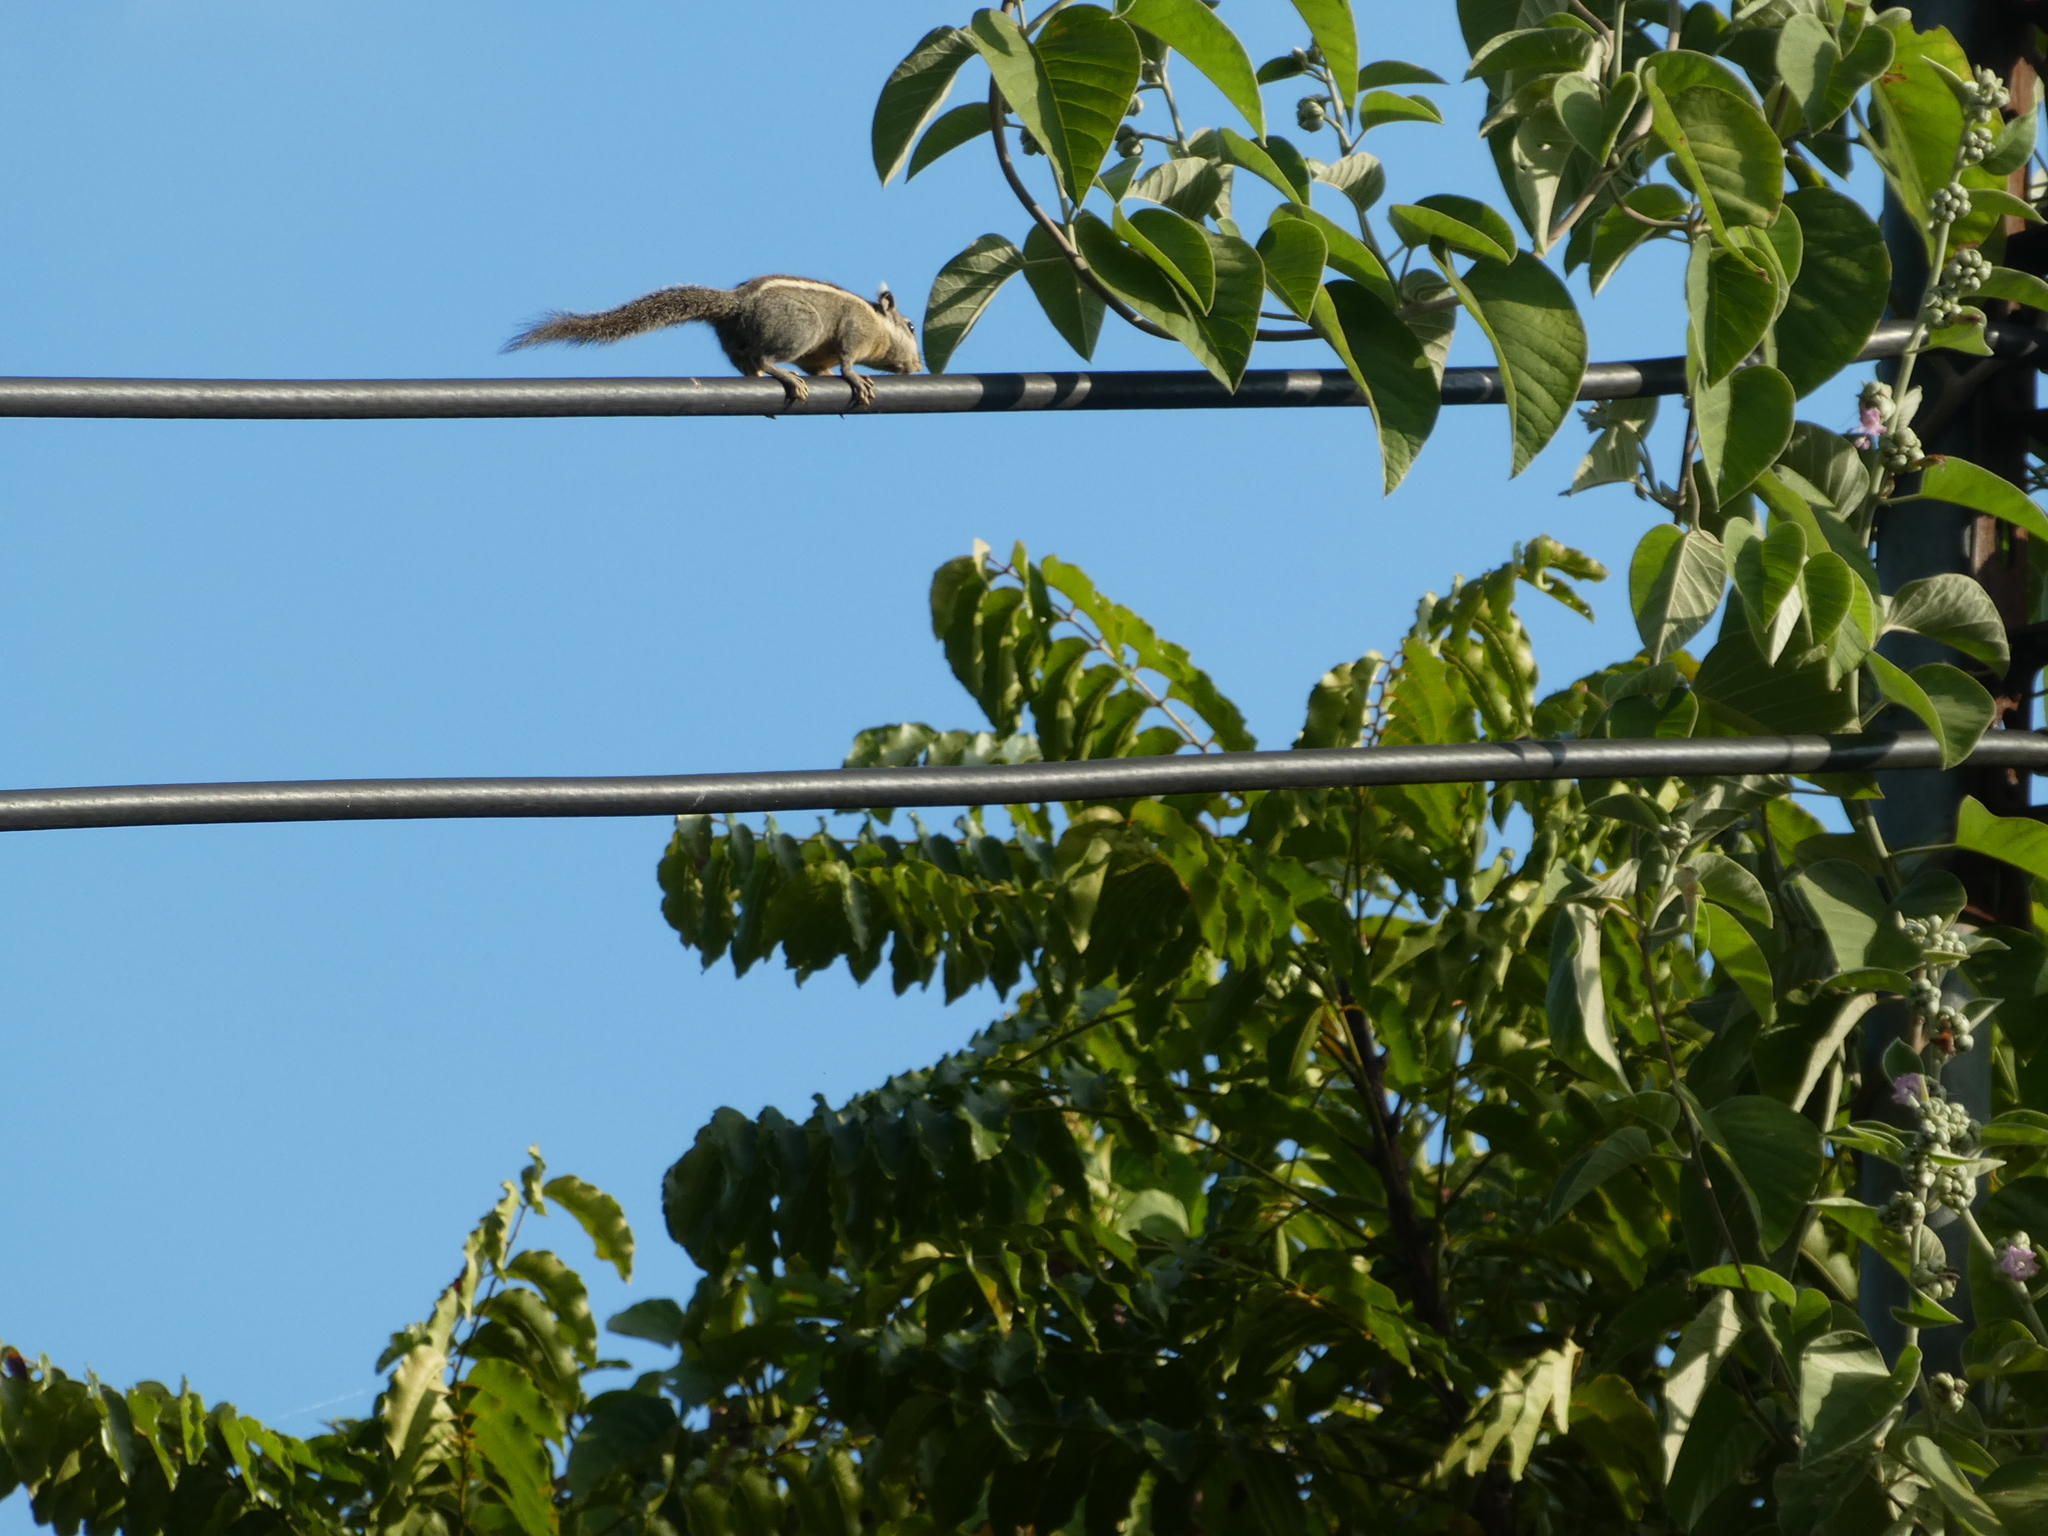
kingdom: Animalia
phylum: Chordata
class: Mammalia
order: Rodentia
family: Sciuridae
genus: Tamiops
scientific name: Tamiops mcclellandii
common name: Himalayan striped squirrel
